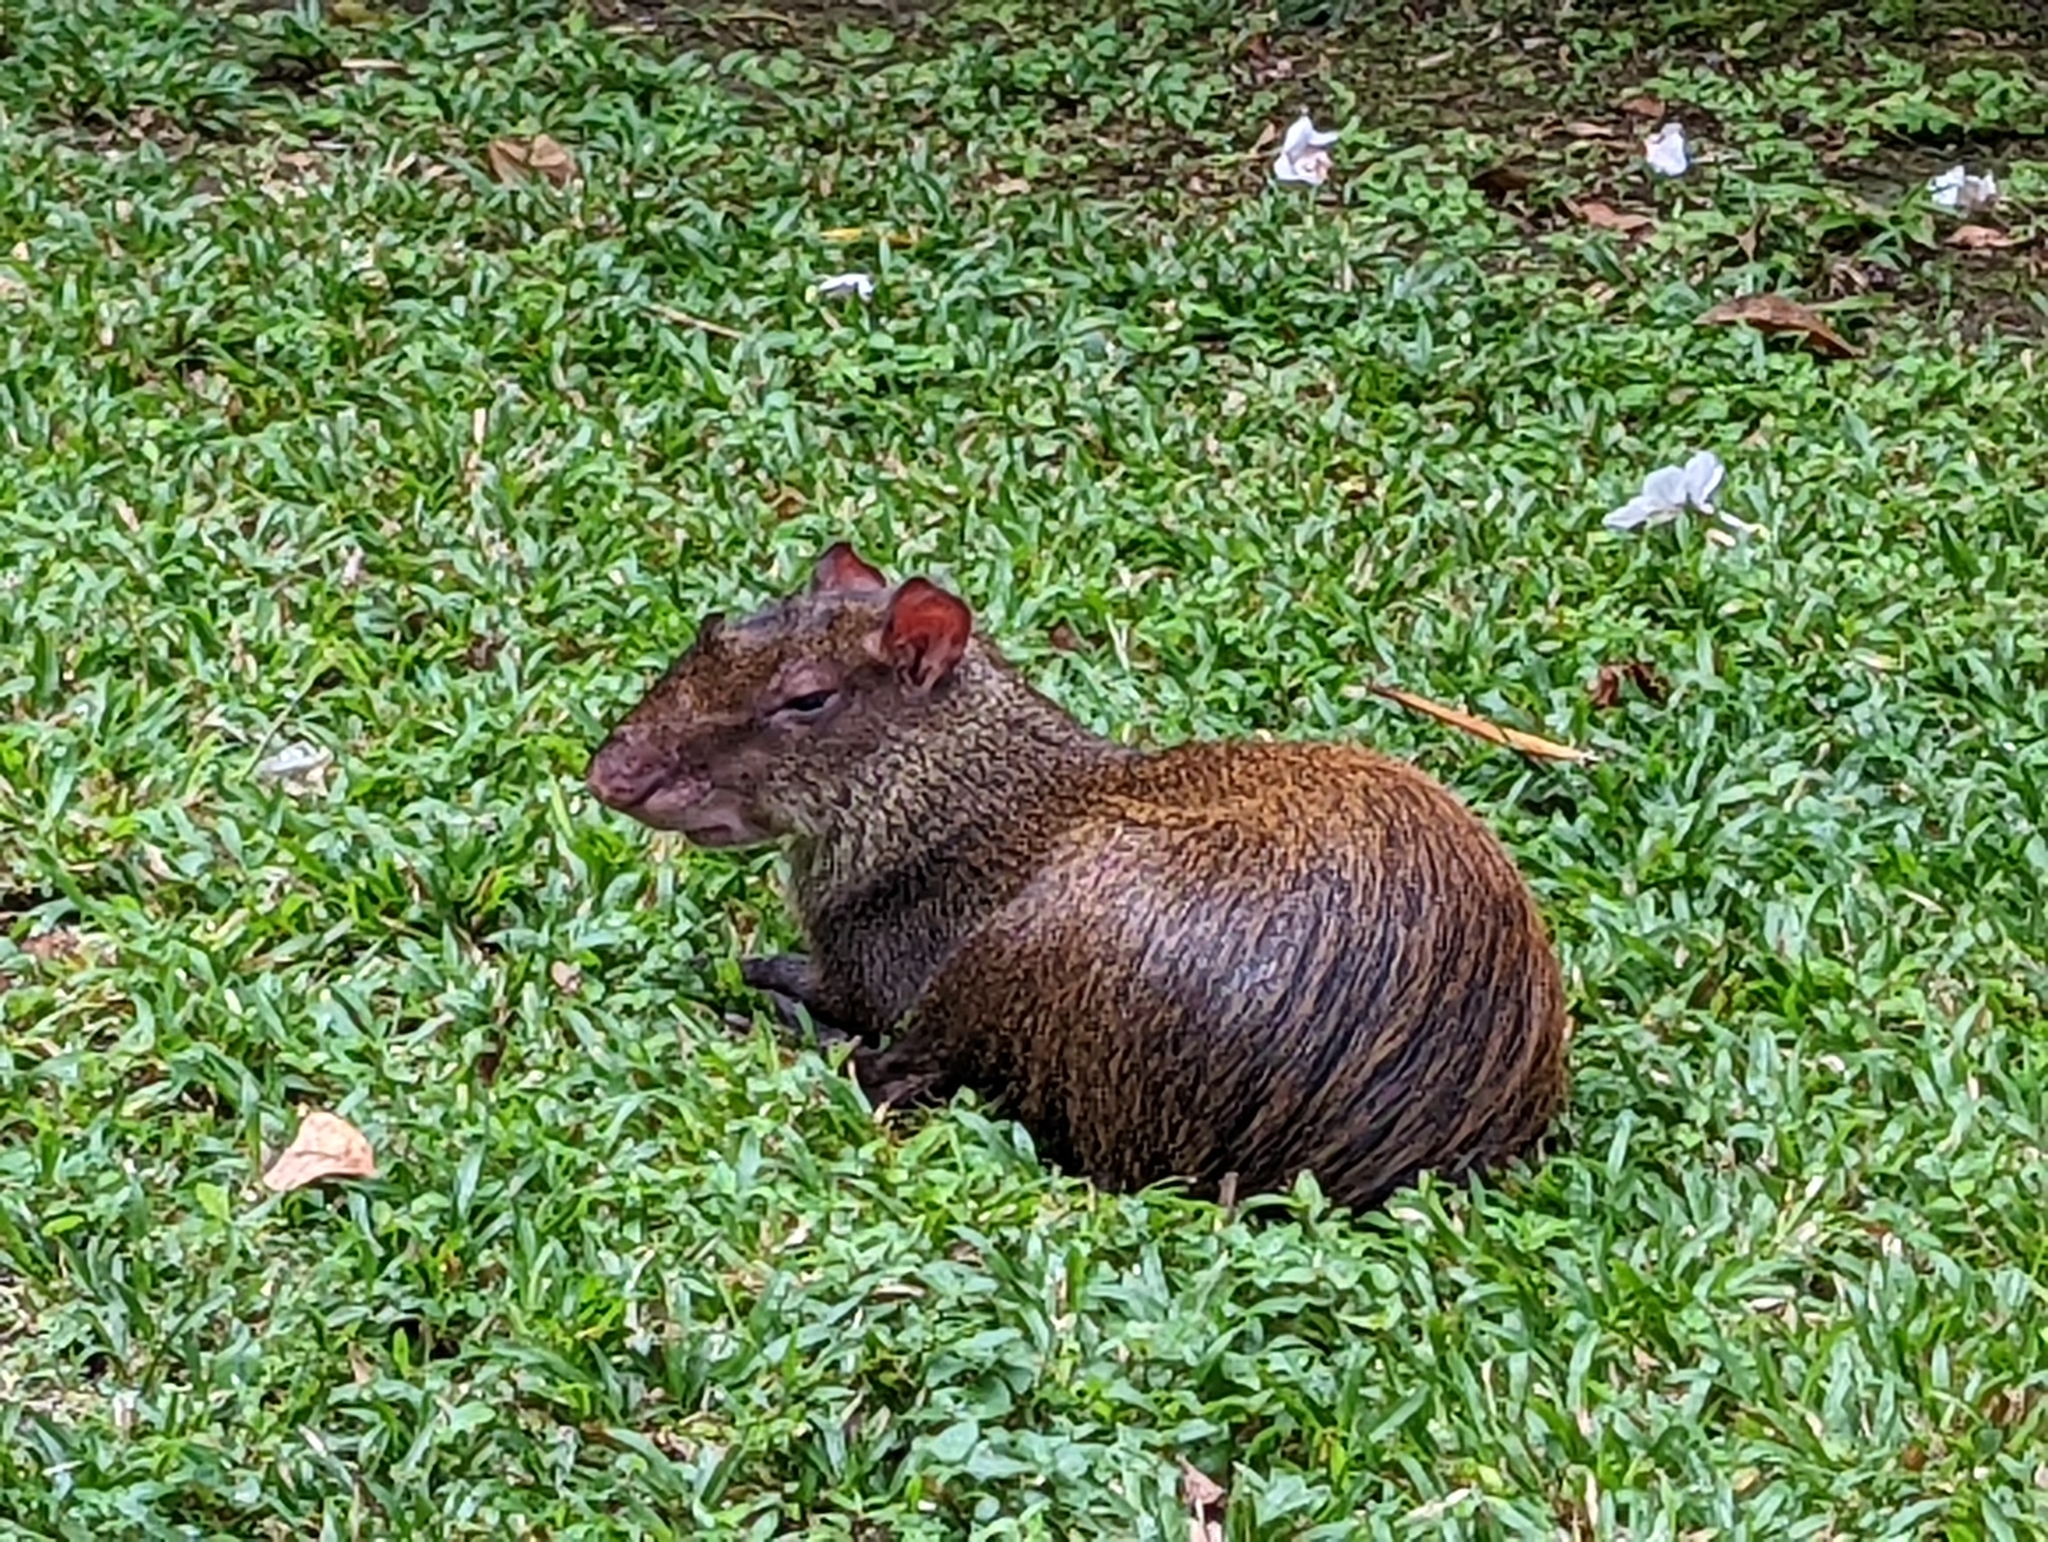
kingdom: Animalia
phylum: Chordata
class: Mammalia
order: Rodentia
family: Dasyproctidae
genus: Dasyprocta
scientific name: Dasyprocta punctata
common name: Central american agouti
